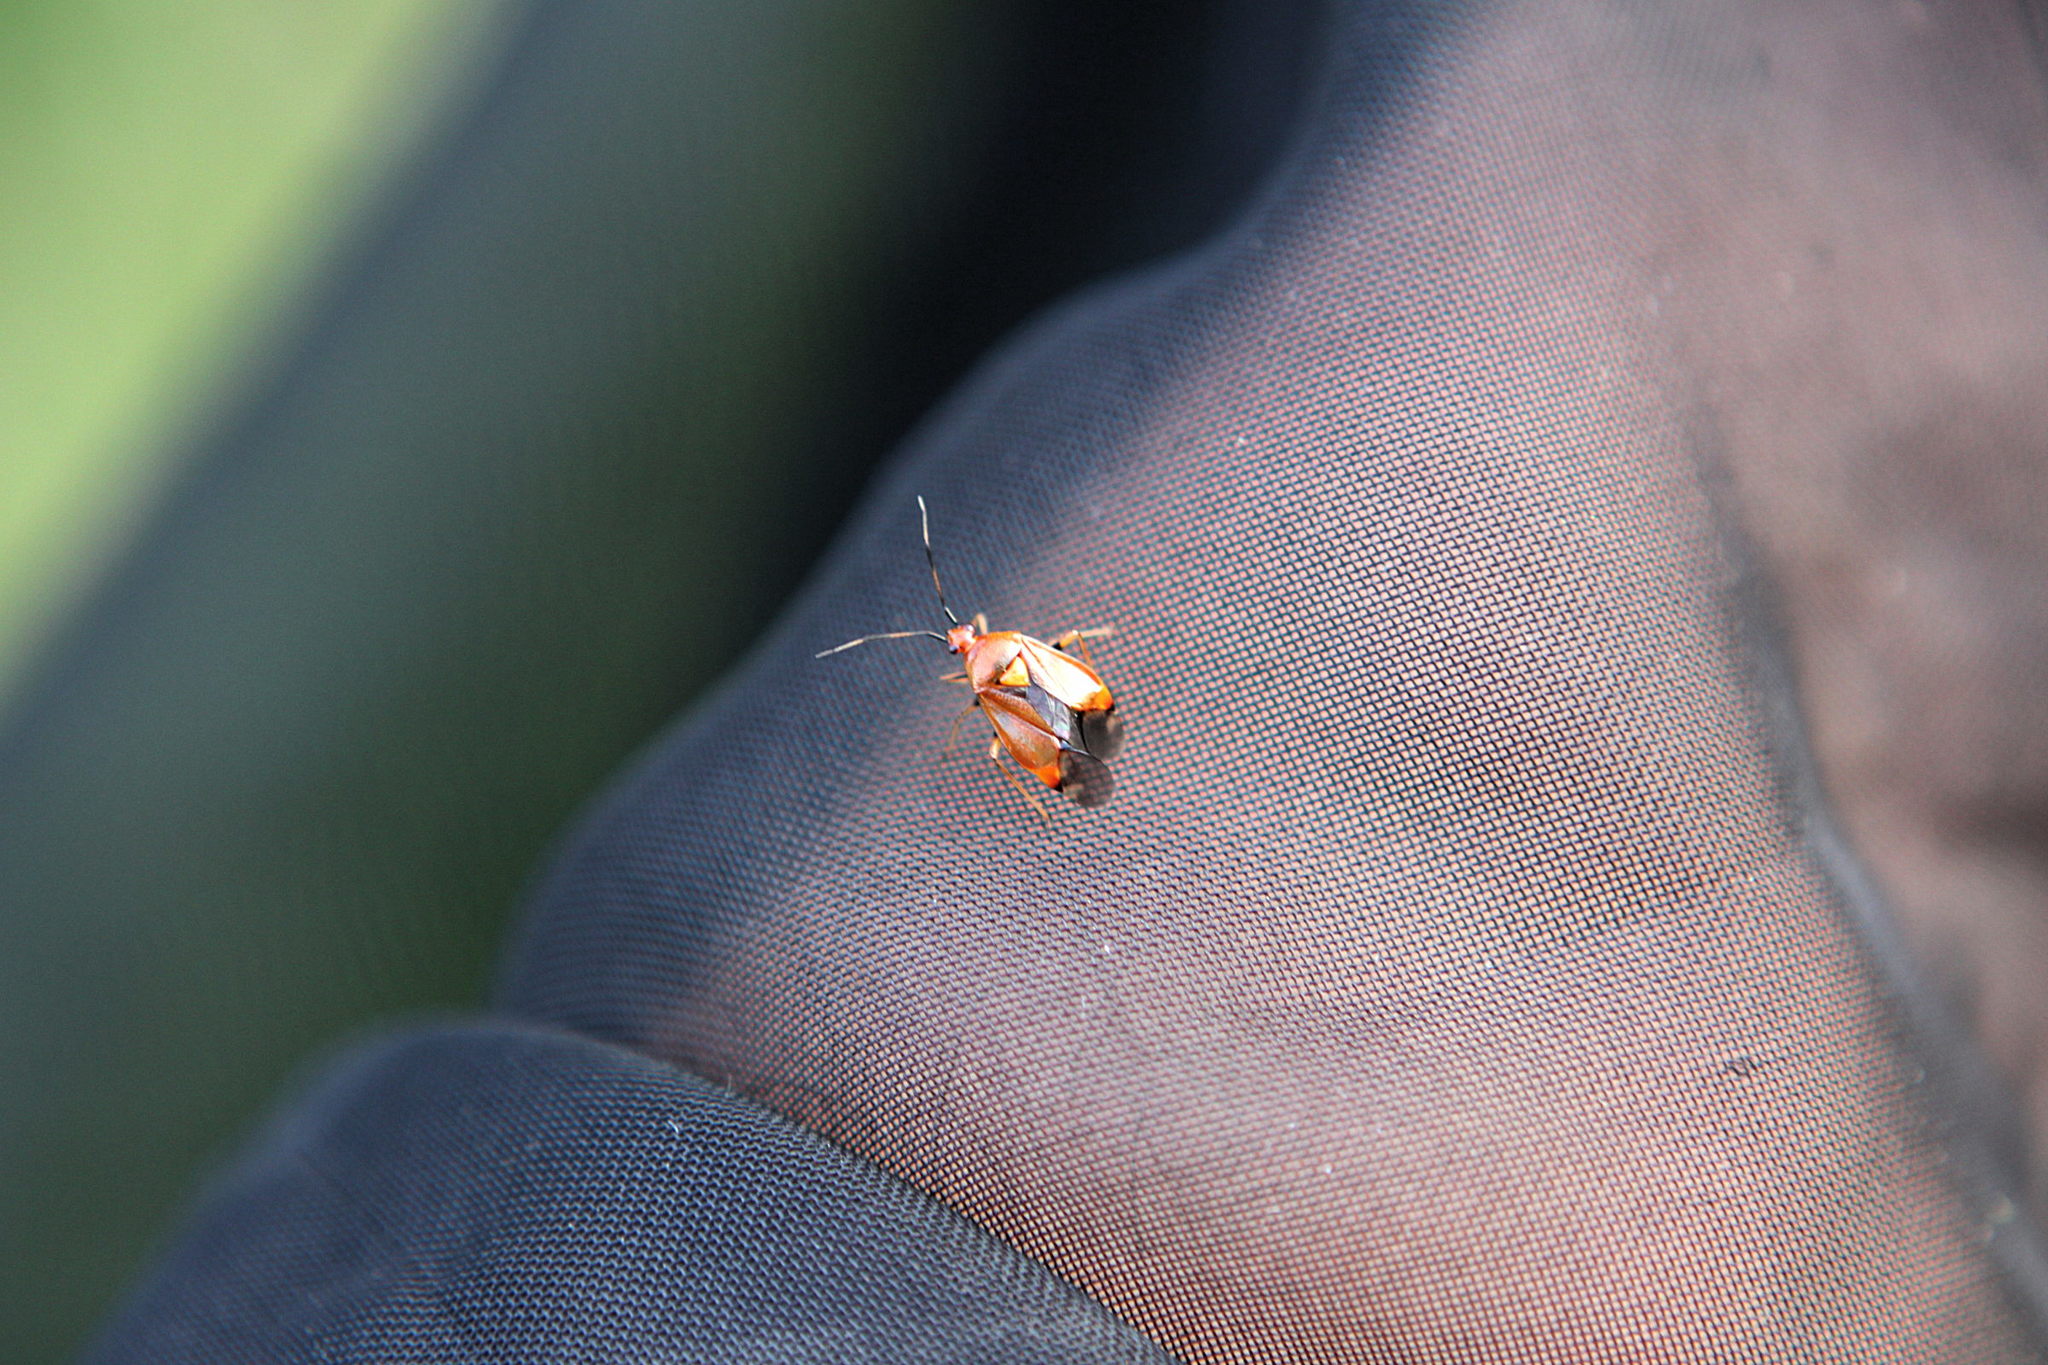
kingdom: Animalia
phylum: Arthropoda
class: Insecta
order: Hemiptera
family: Miridae
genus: Deraeocoris
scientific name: Deraeocoris ruber
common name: Plant bug
